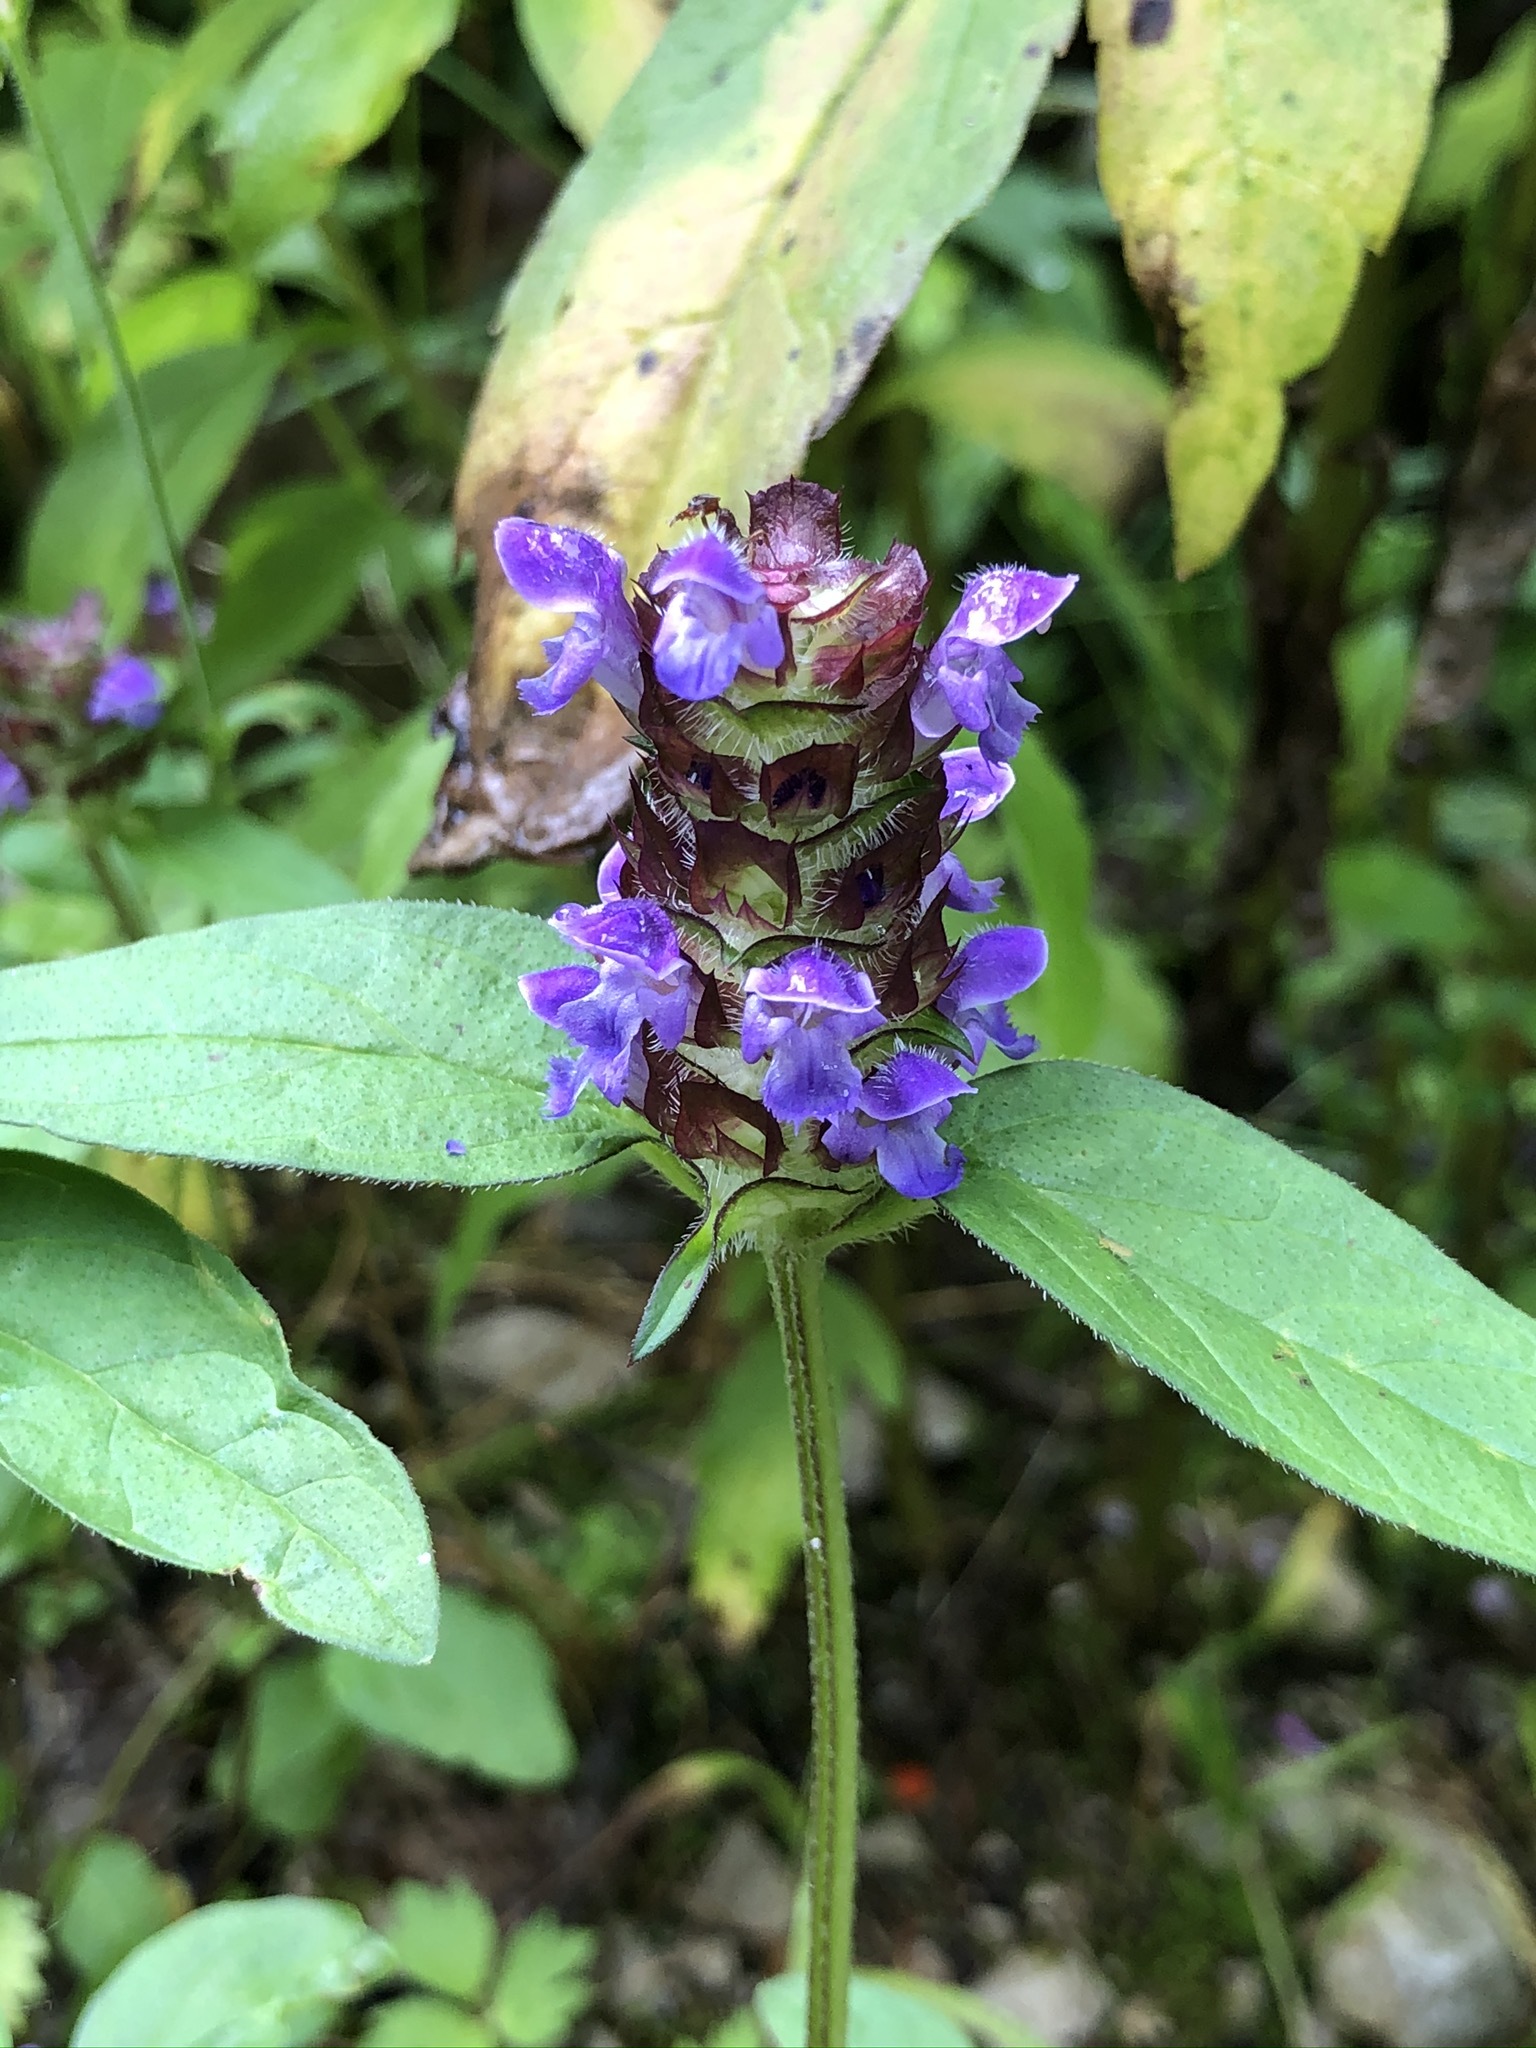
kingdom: Plantae
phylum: Tracheophyta
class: Magnoliopsida
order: Lamiales
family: Lamiaceae
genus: Prunella
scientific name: Prunella vulgaris
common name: Heal-all
